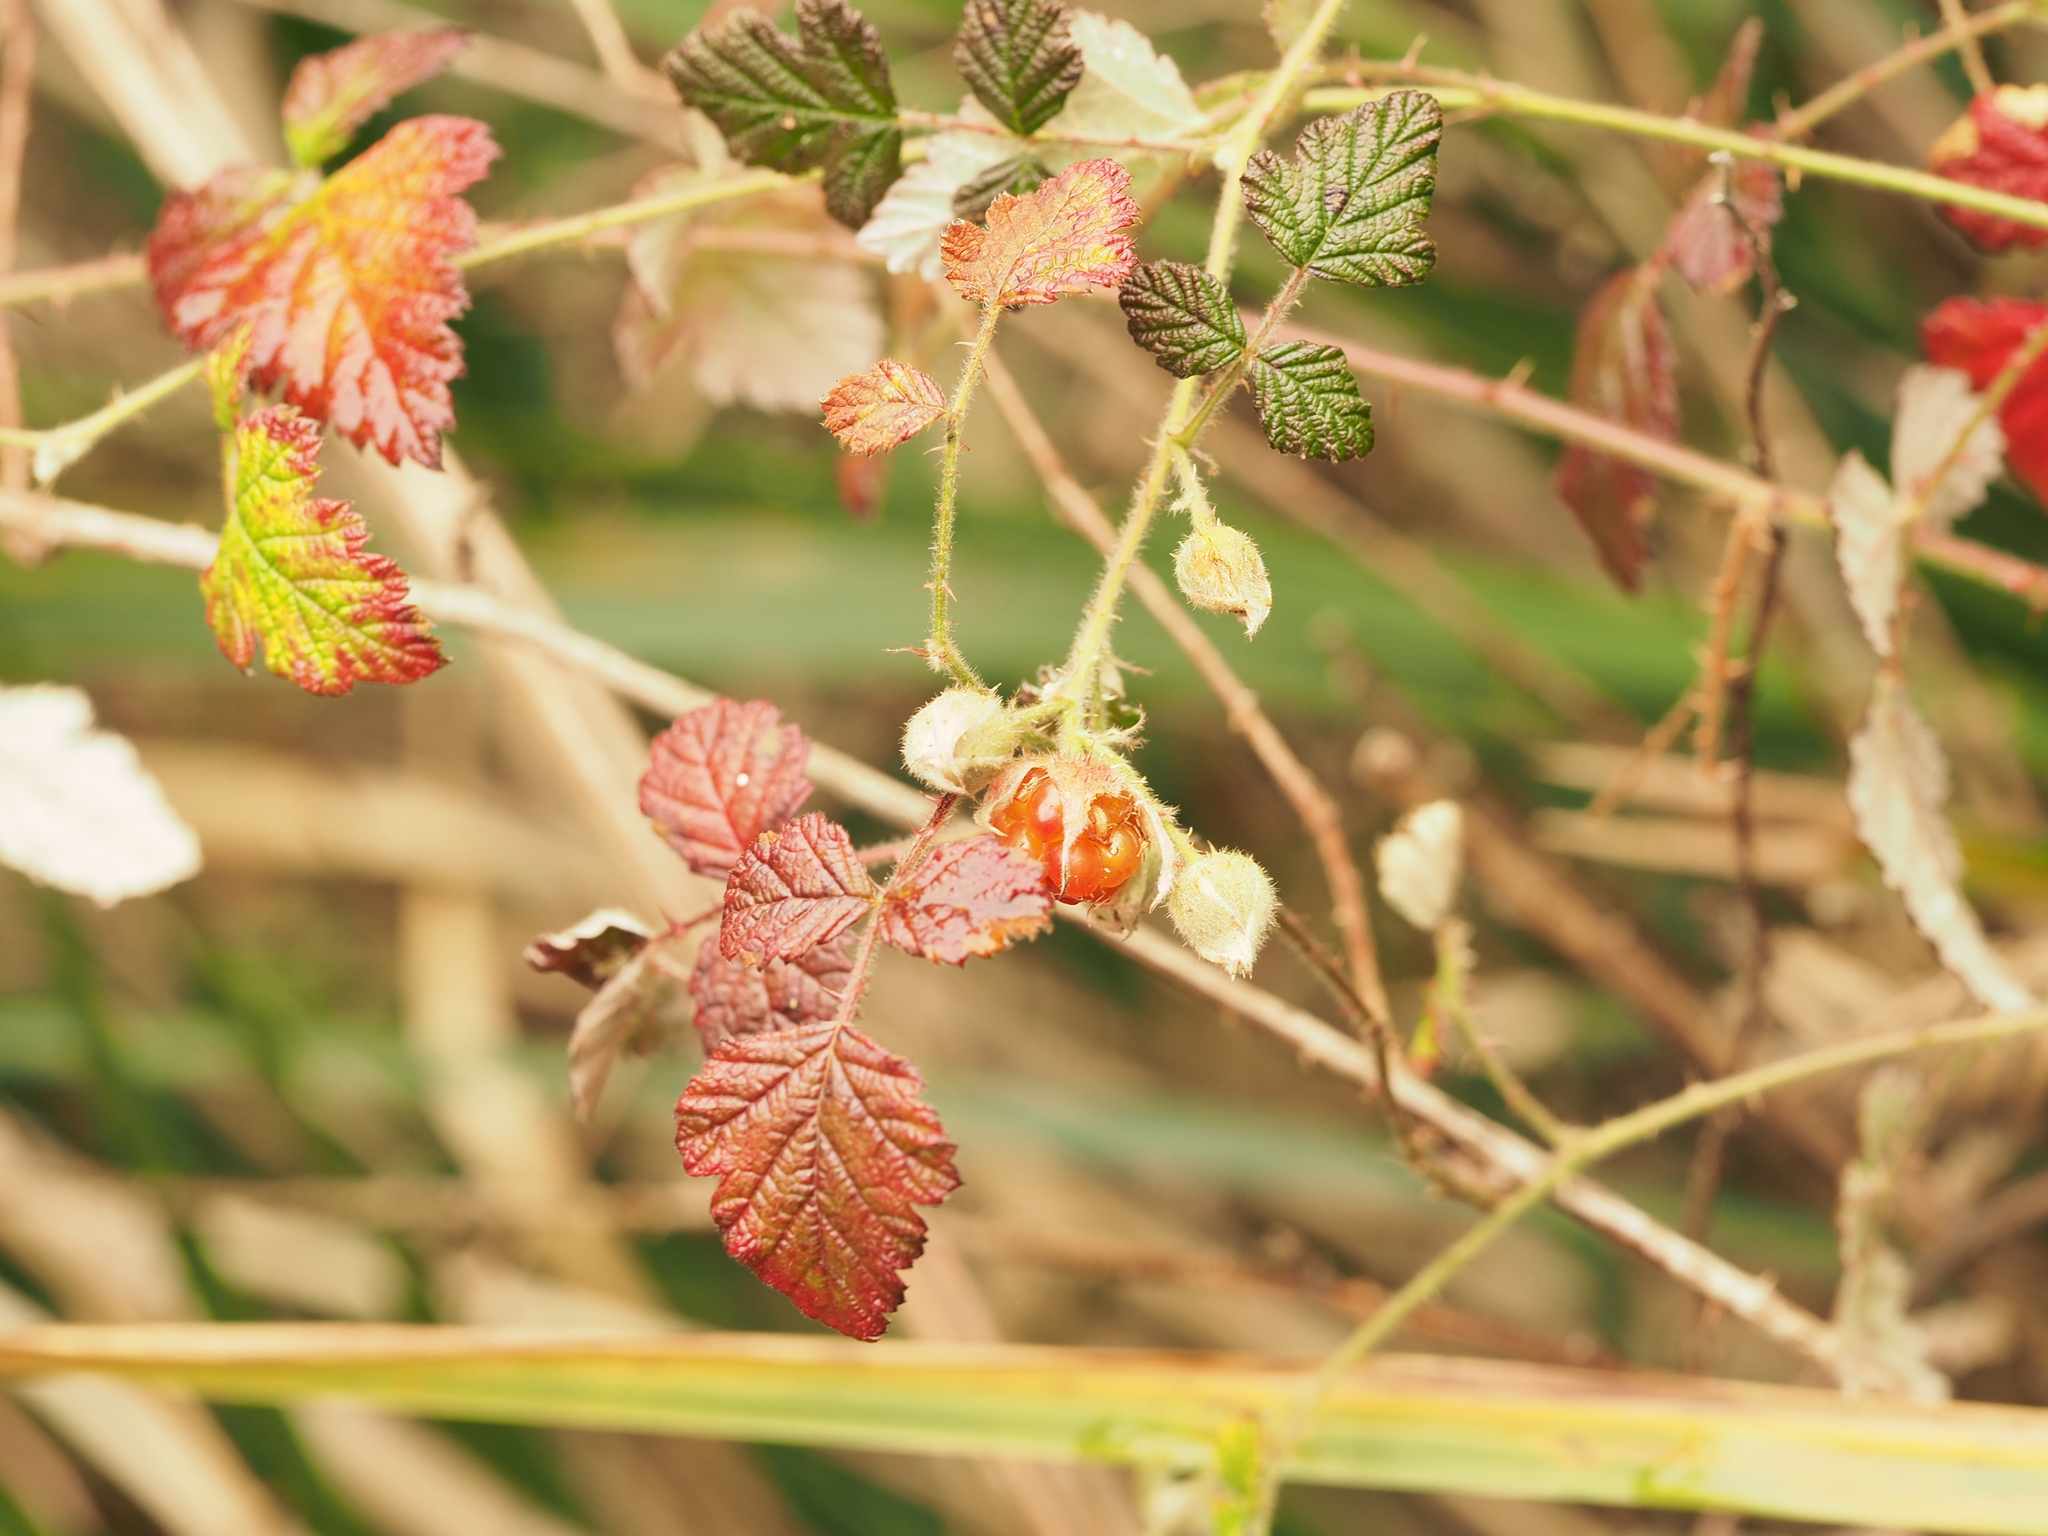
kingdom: Plantae
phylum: Tracheophyta
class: Magnoliopsida
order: Rosales
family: Rosaceae
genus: Rubus
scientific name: Rubus parvifolius
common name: Threeleaf blackberry
